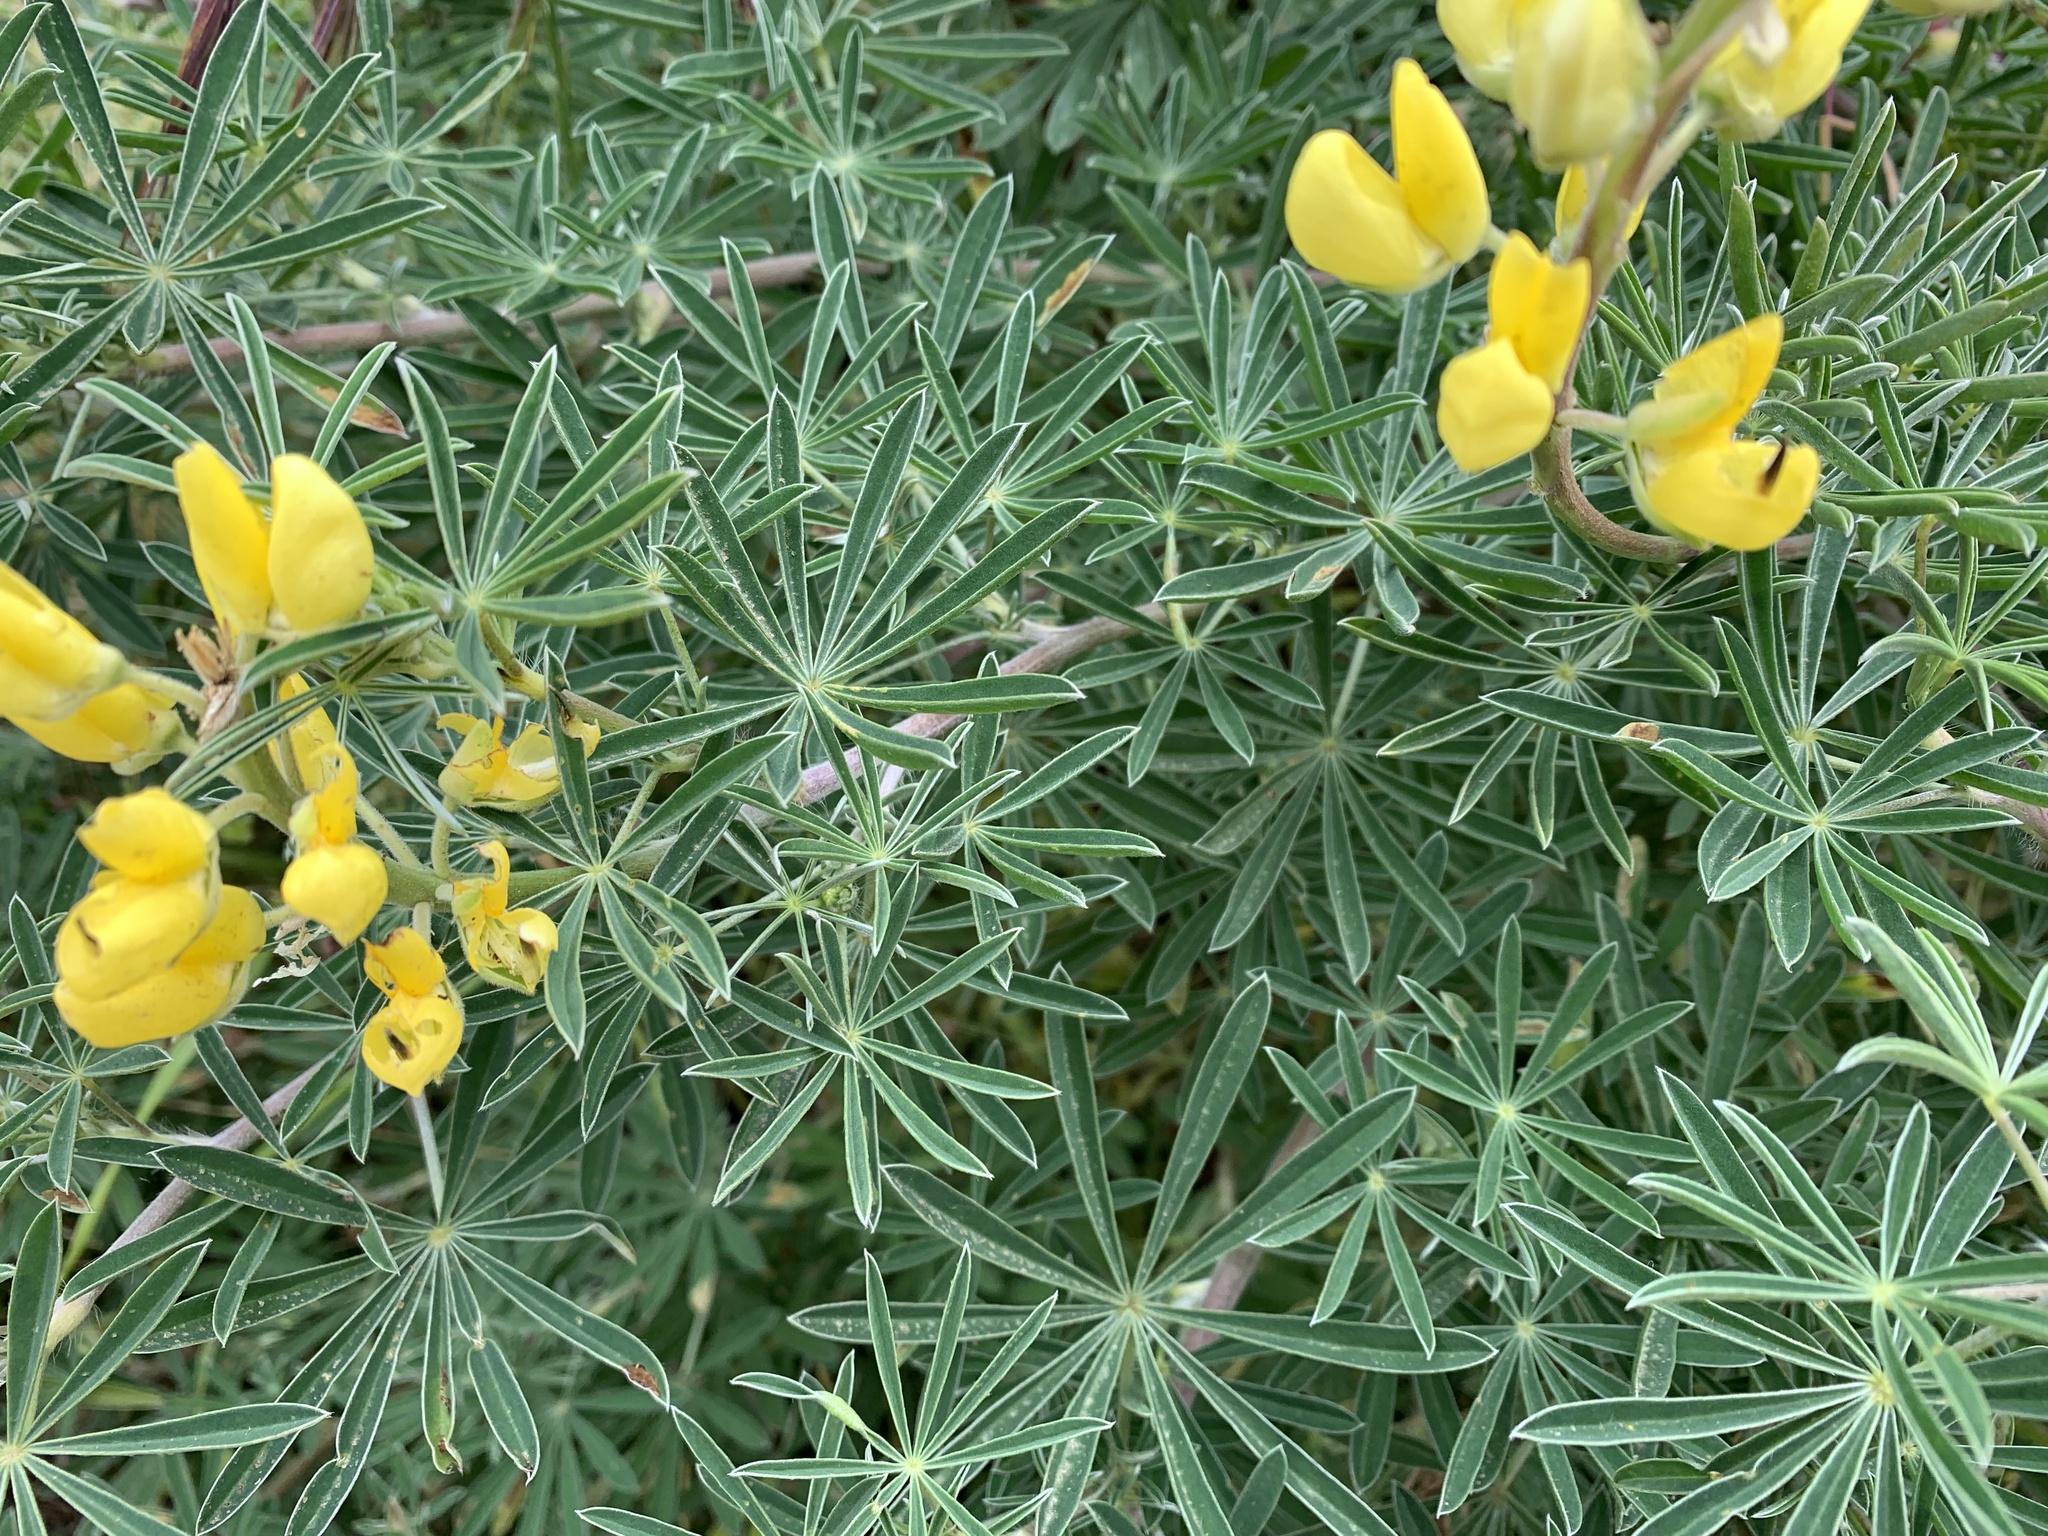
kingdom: Plantae
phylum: Tracheophyta
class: Magnoliopsida
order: Fabales
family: Fabaceae
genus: Lupinus
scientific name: Lupinus arboreus
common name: Yellow bush lupine
